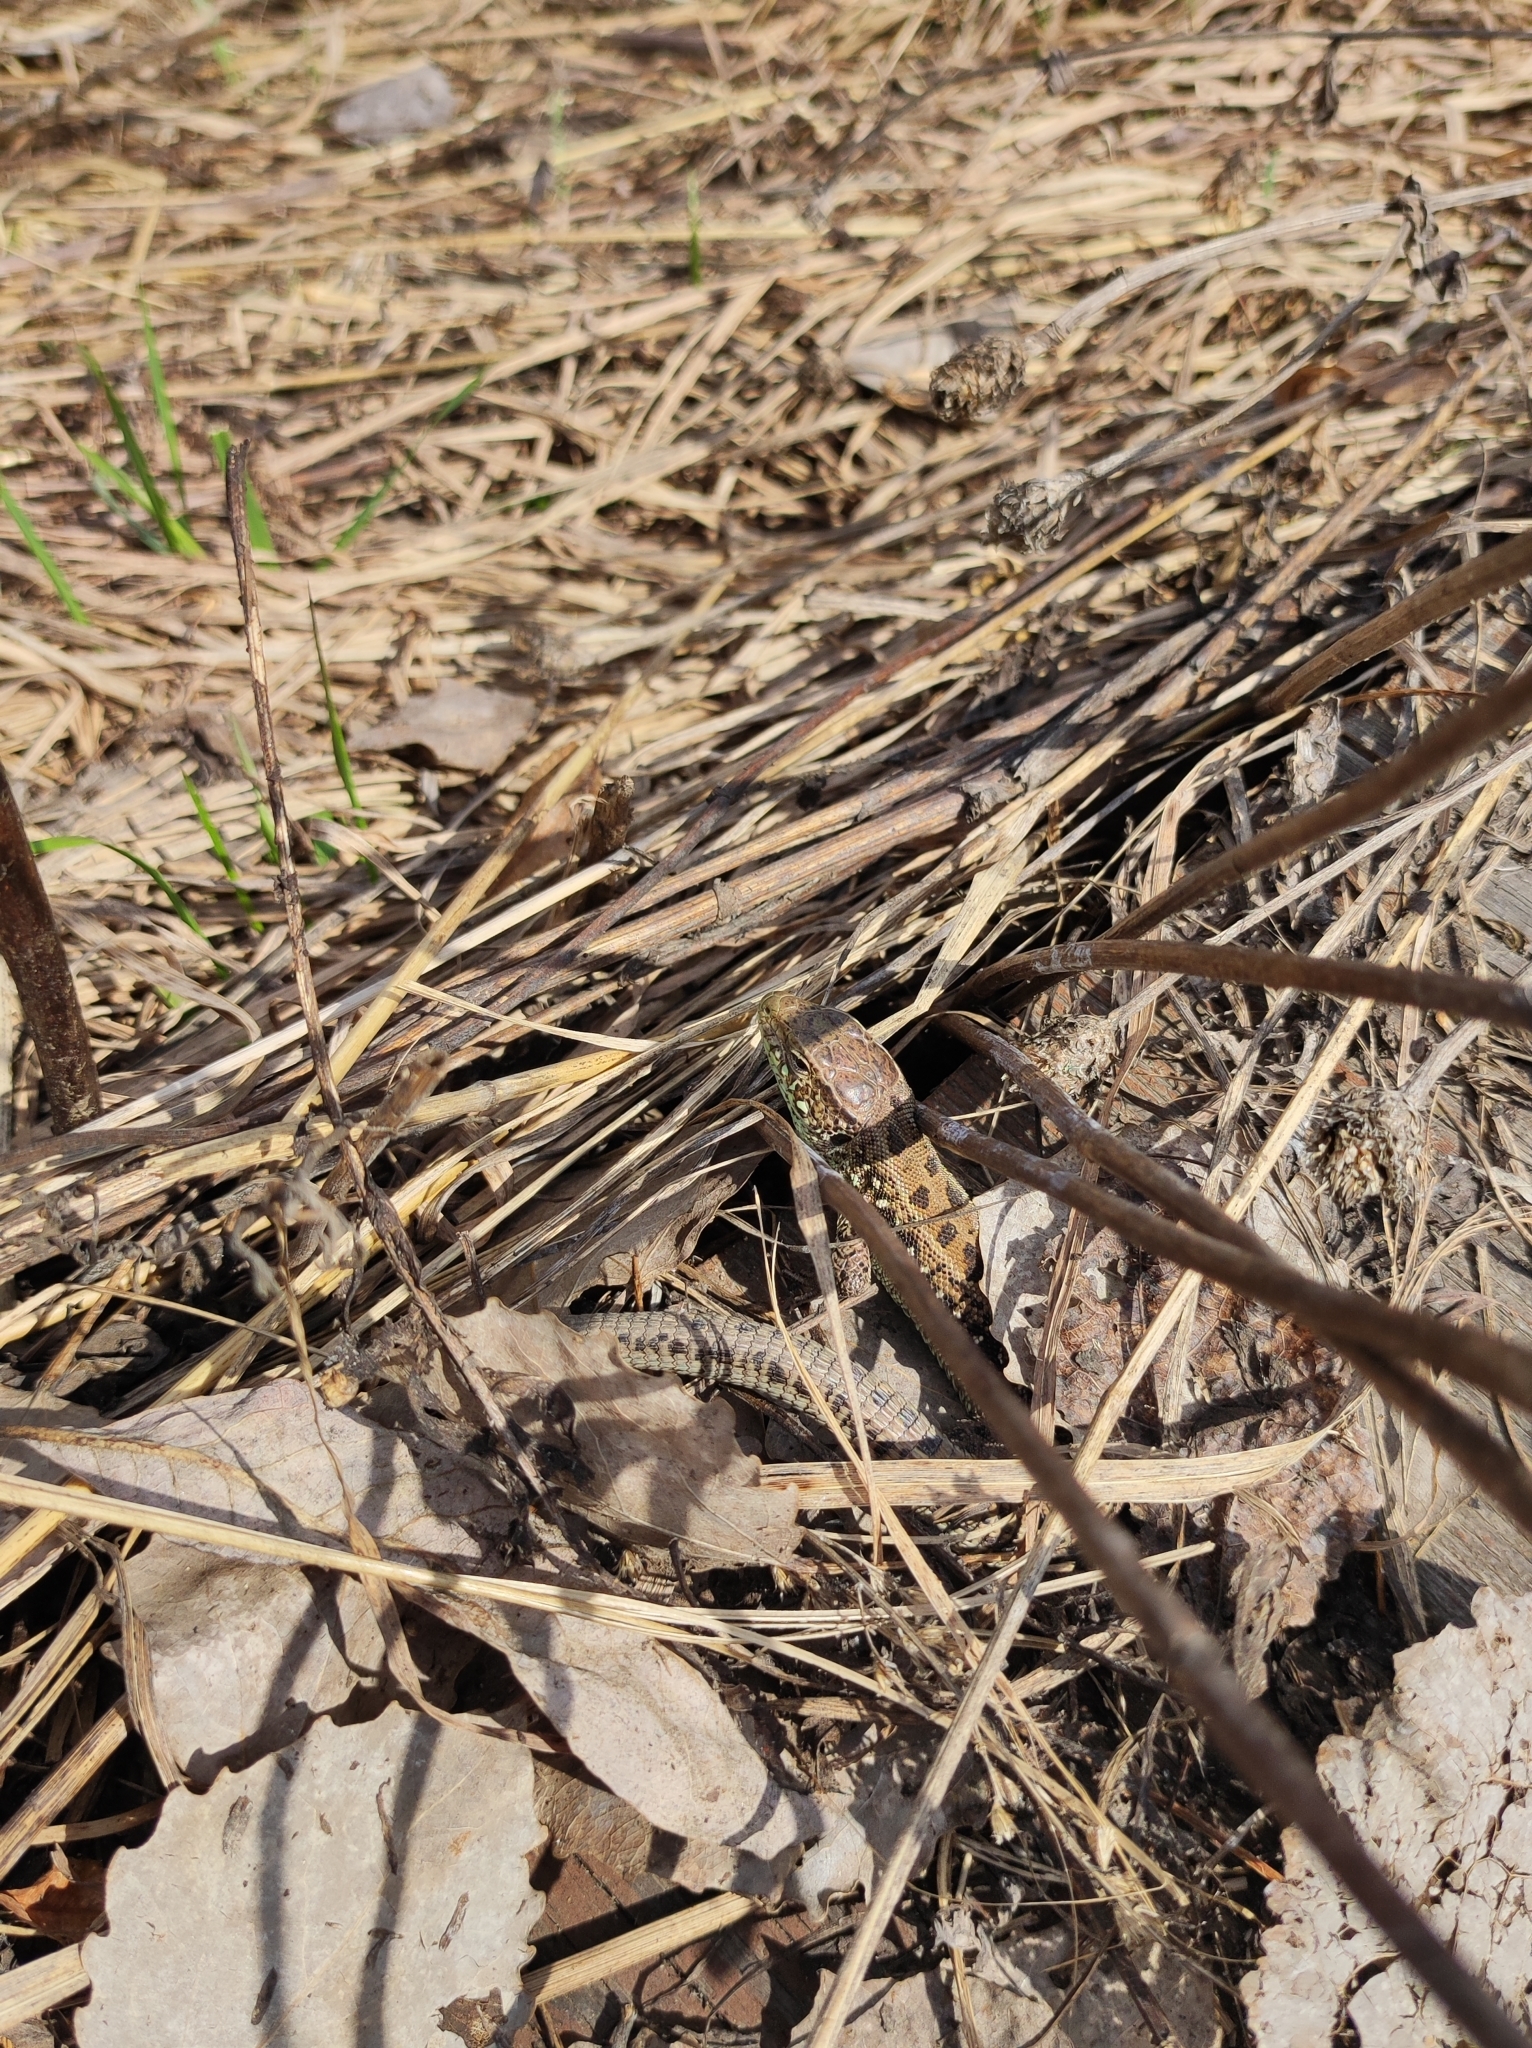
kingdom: Animalia
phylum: Chordata
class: Squamata
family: Lacertidae
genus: Lacerta
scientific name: Lacerta agilis
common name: Sand lizard
